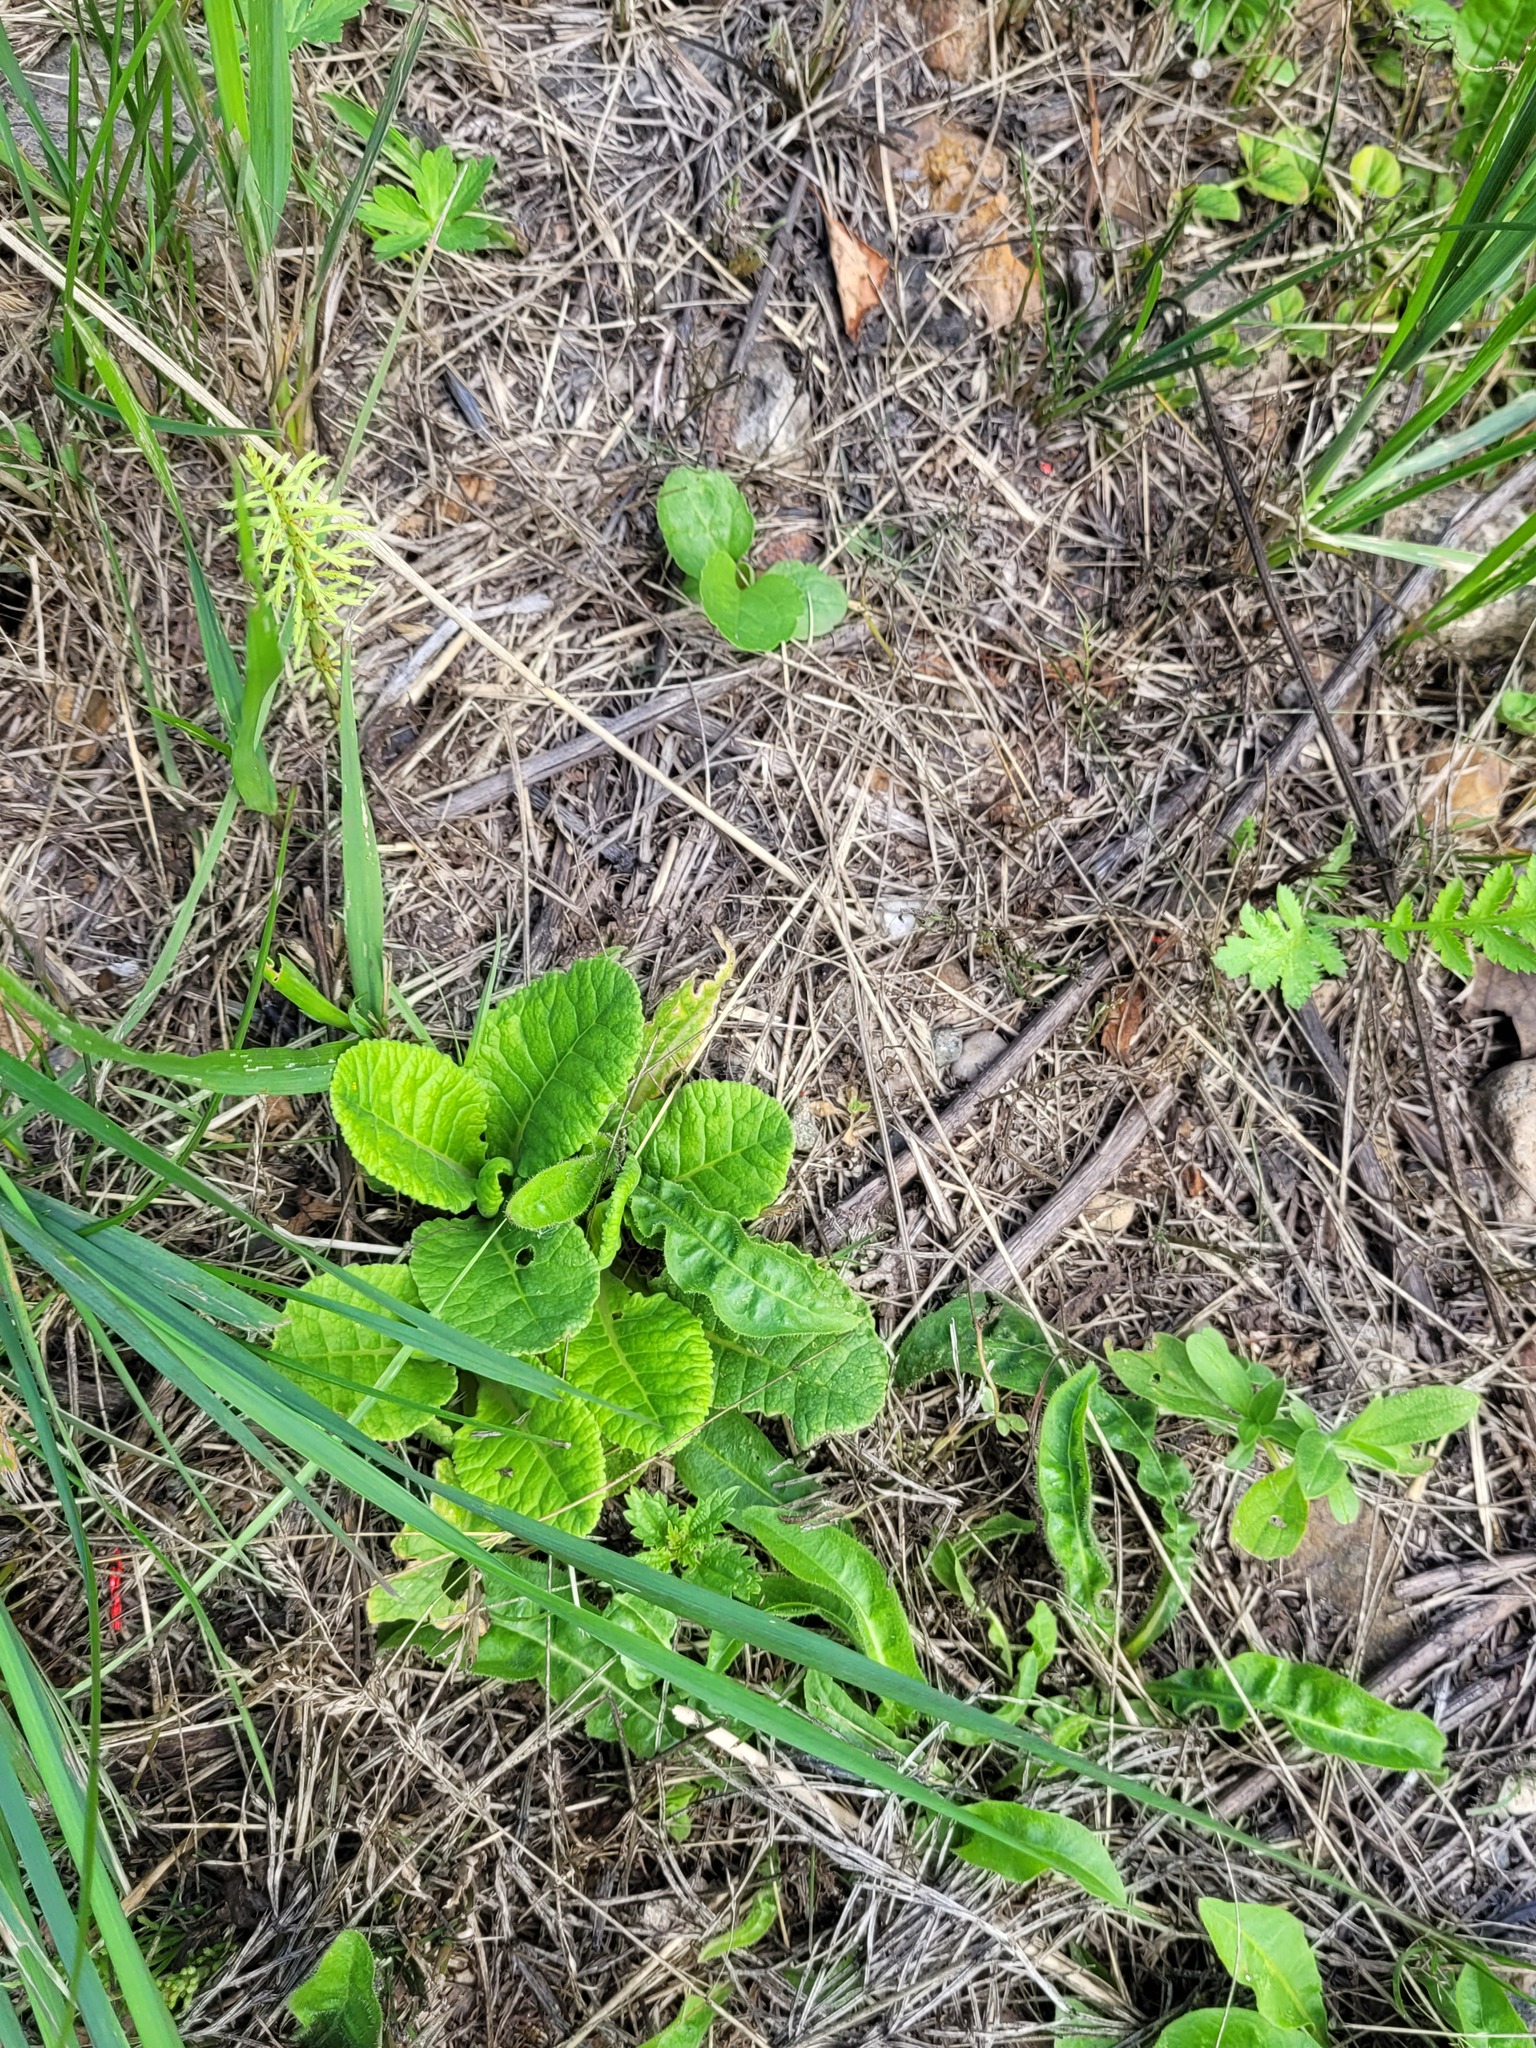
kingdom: Plantae
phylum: Tracheophyta
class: Magnoliopsida
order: Ericales
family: Primulaceae
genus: Primula
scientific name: Primula veris
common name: Cowslip
